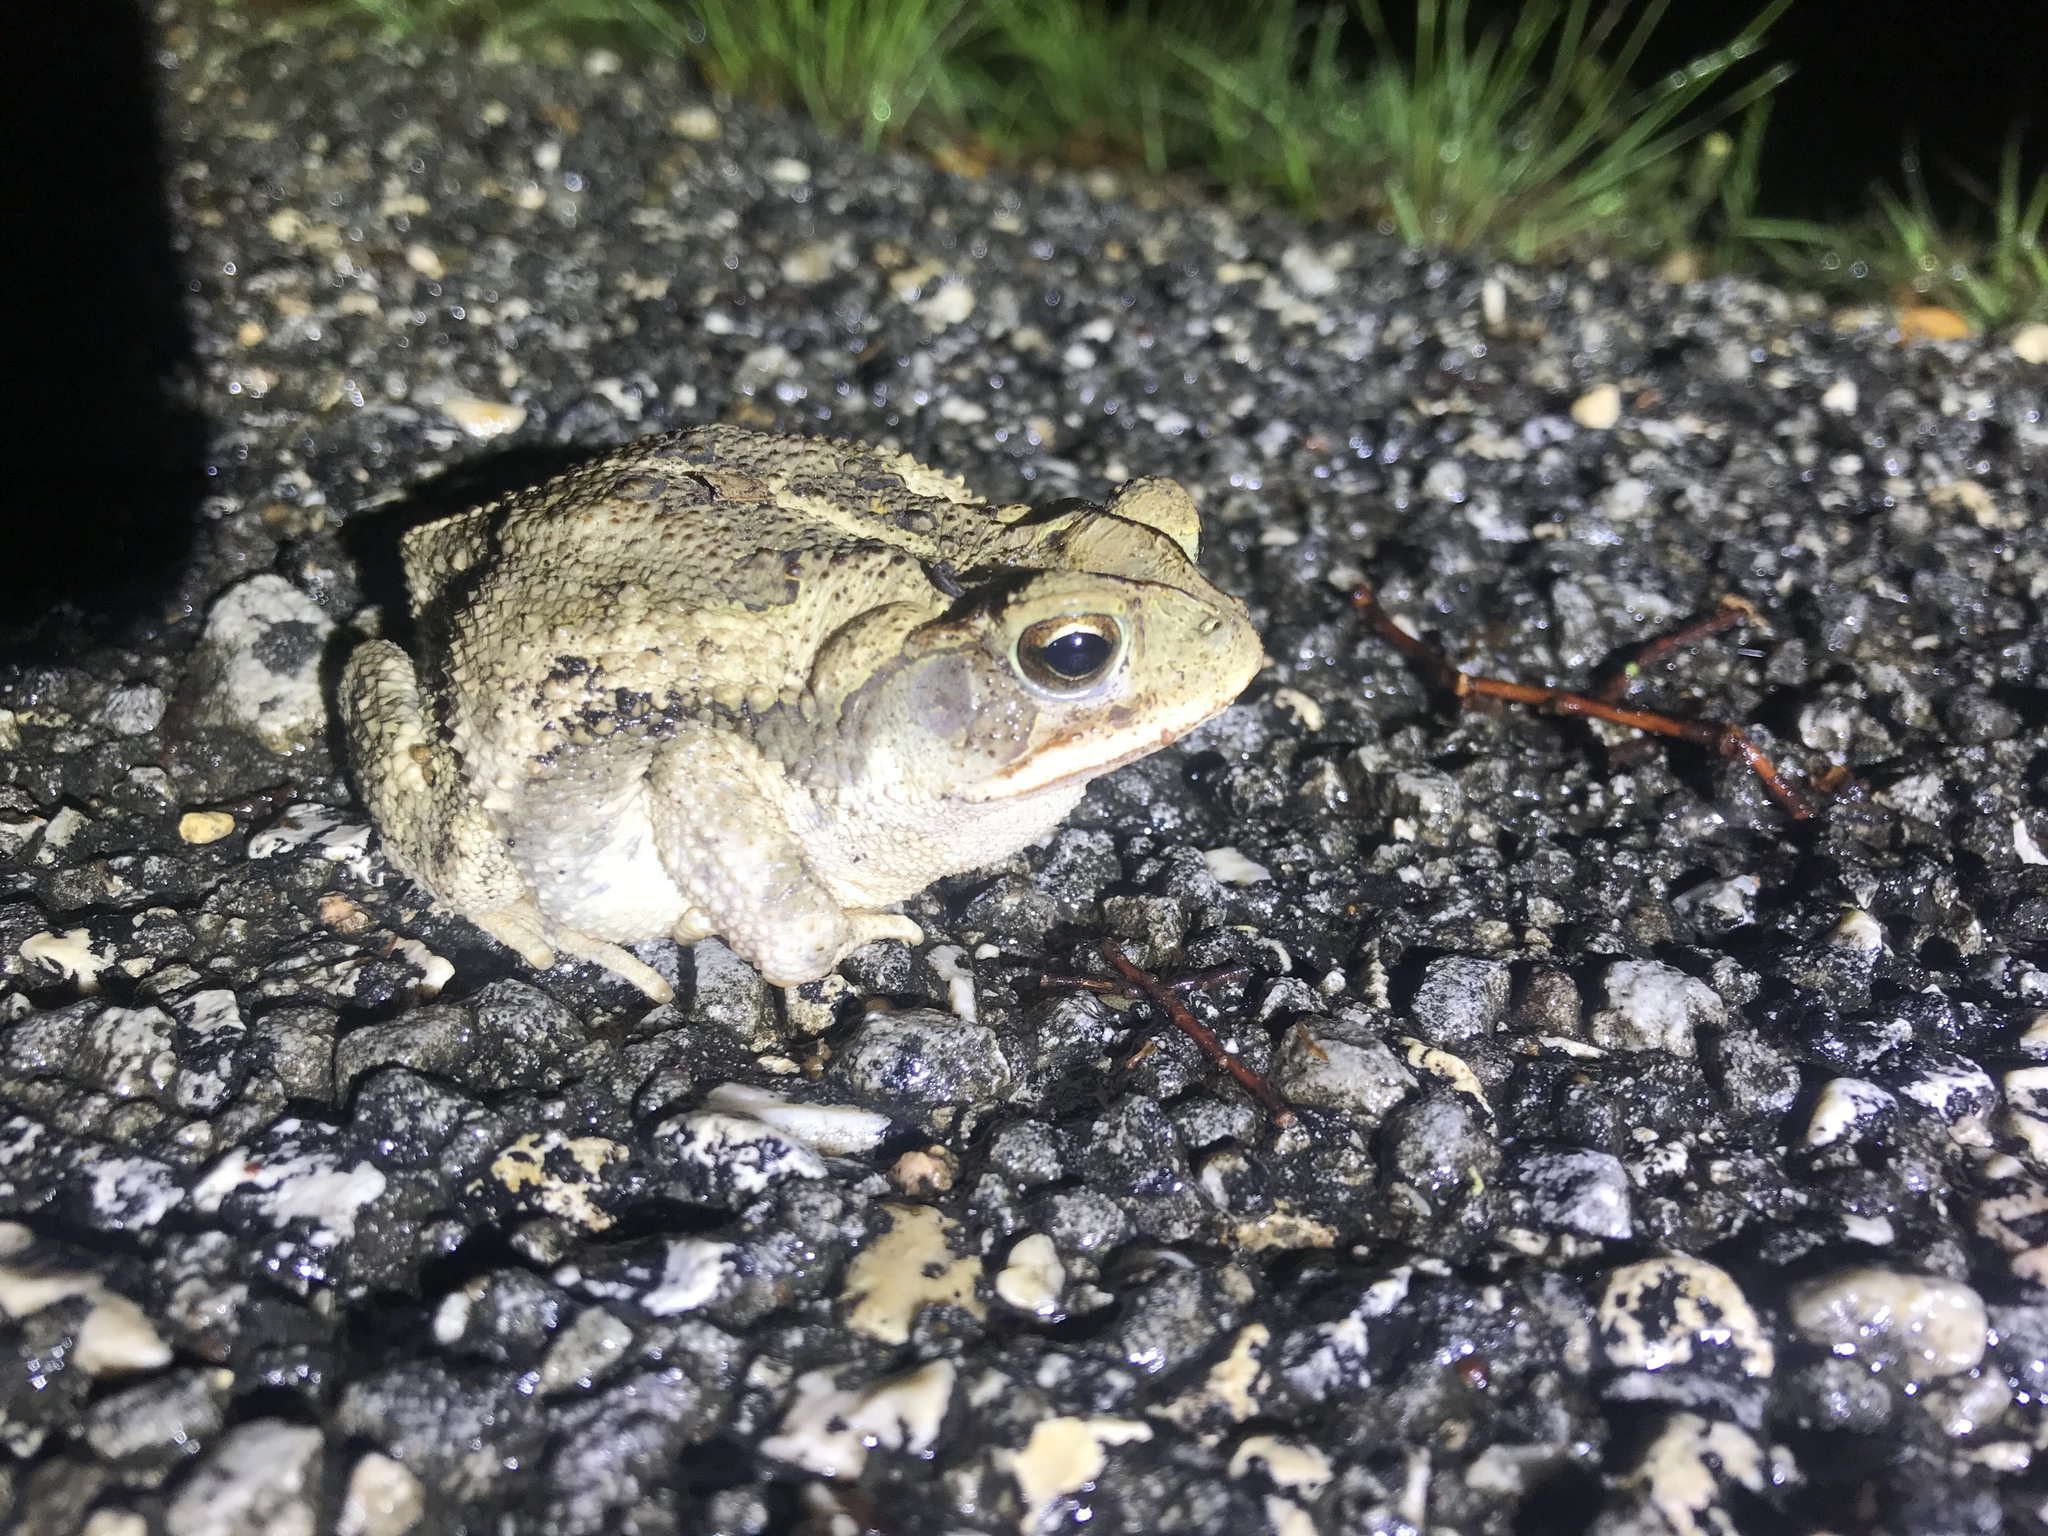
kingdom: Animalia
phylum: Chordata
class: Amphibia
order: Anura
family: Bufonidae
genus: Incilius
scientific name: Incilius nebulifer
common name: Gulf coast toad
